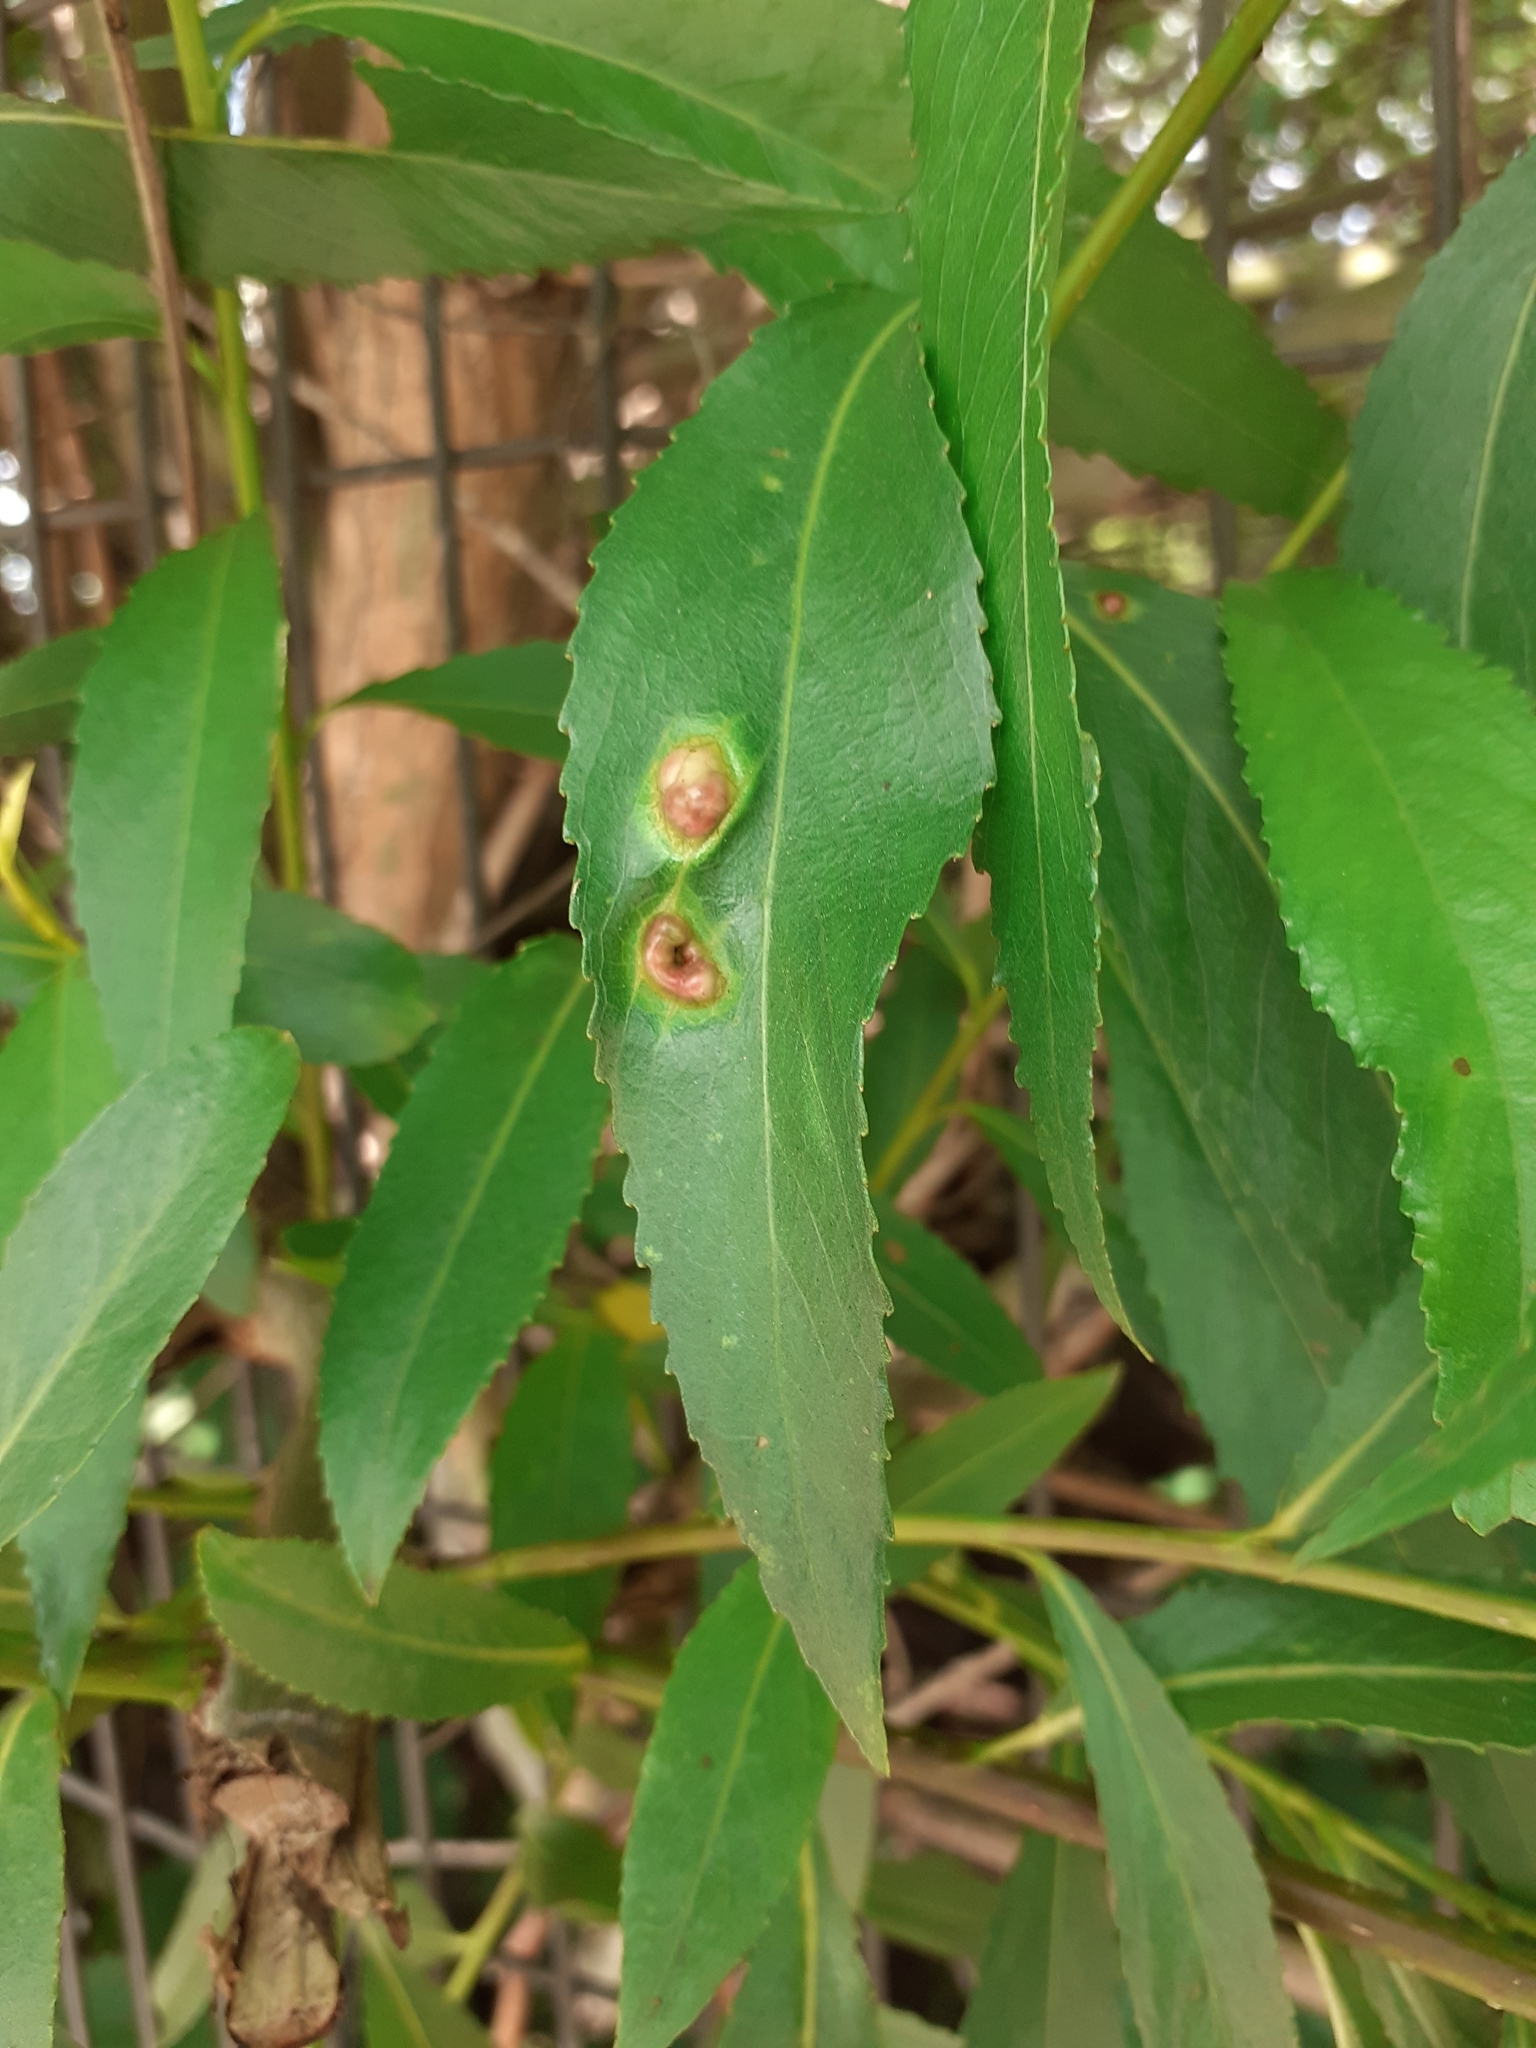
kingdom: Animalia
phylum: Arthropoda
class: Insecta
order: Hymenoptera
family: Tenthredinidae
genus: Pontania
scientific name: Pontania proxima
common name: Common sawfly
